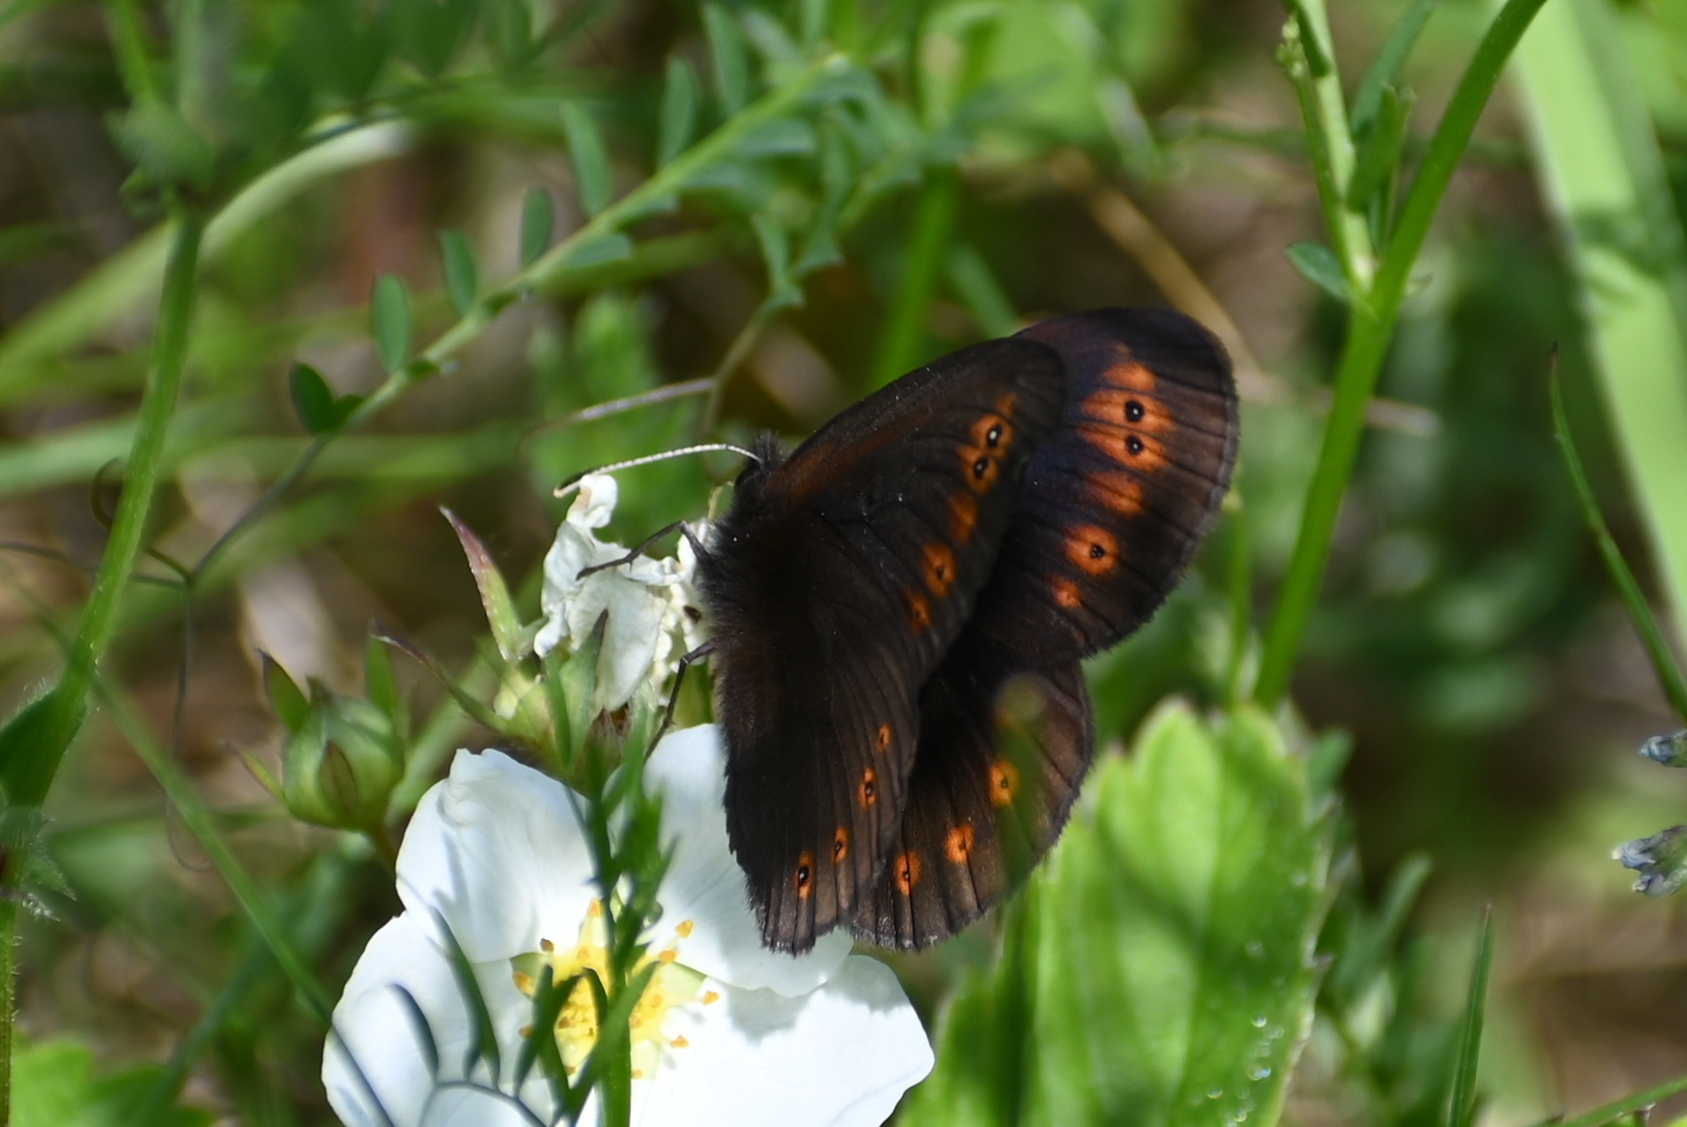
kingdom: Animalia
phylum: Arthropoda
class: Insecta
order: Lepidoptera
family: Nymphalidae
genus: Erebia
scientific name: Erebia medusa
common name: Woodland ringlet
